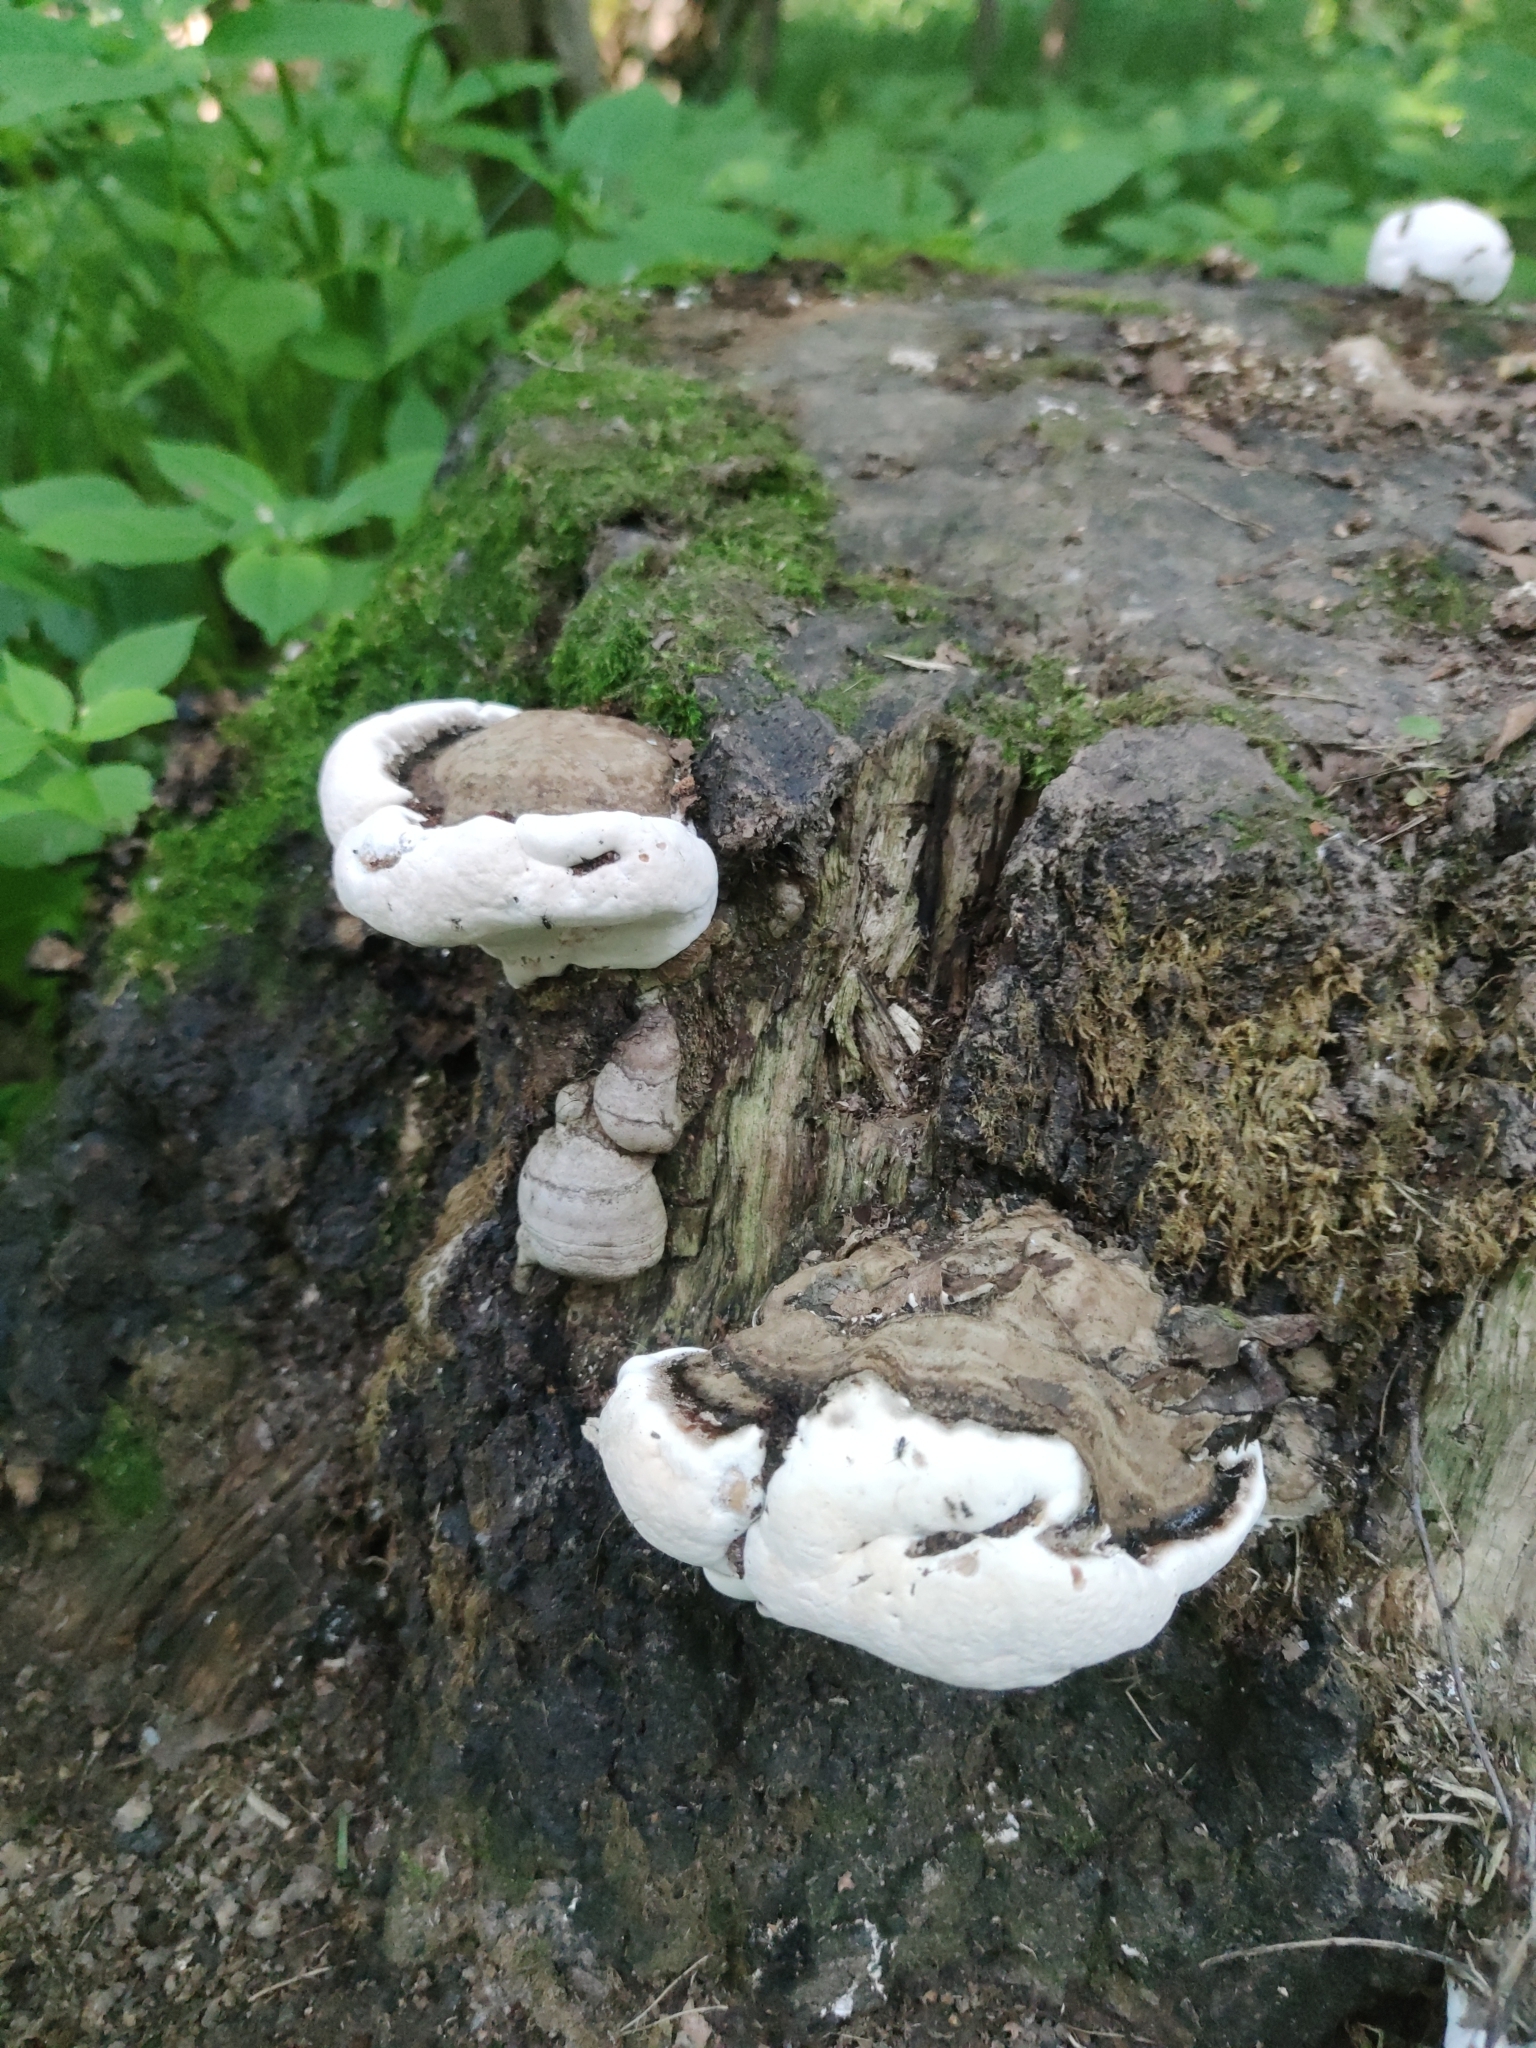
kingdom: Fungi
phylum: Basidiomycota
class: Agaricomycetes
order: Polyporales
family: Polyporaceae
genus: Ganoderma
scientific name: Ganoderma applanatum
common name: Artist's bracket
